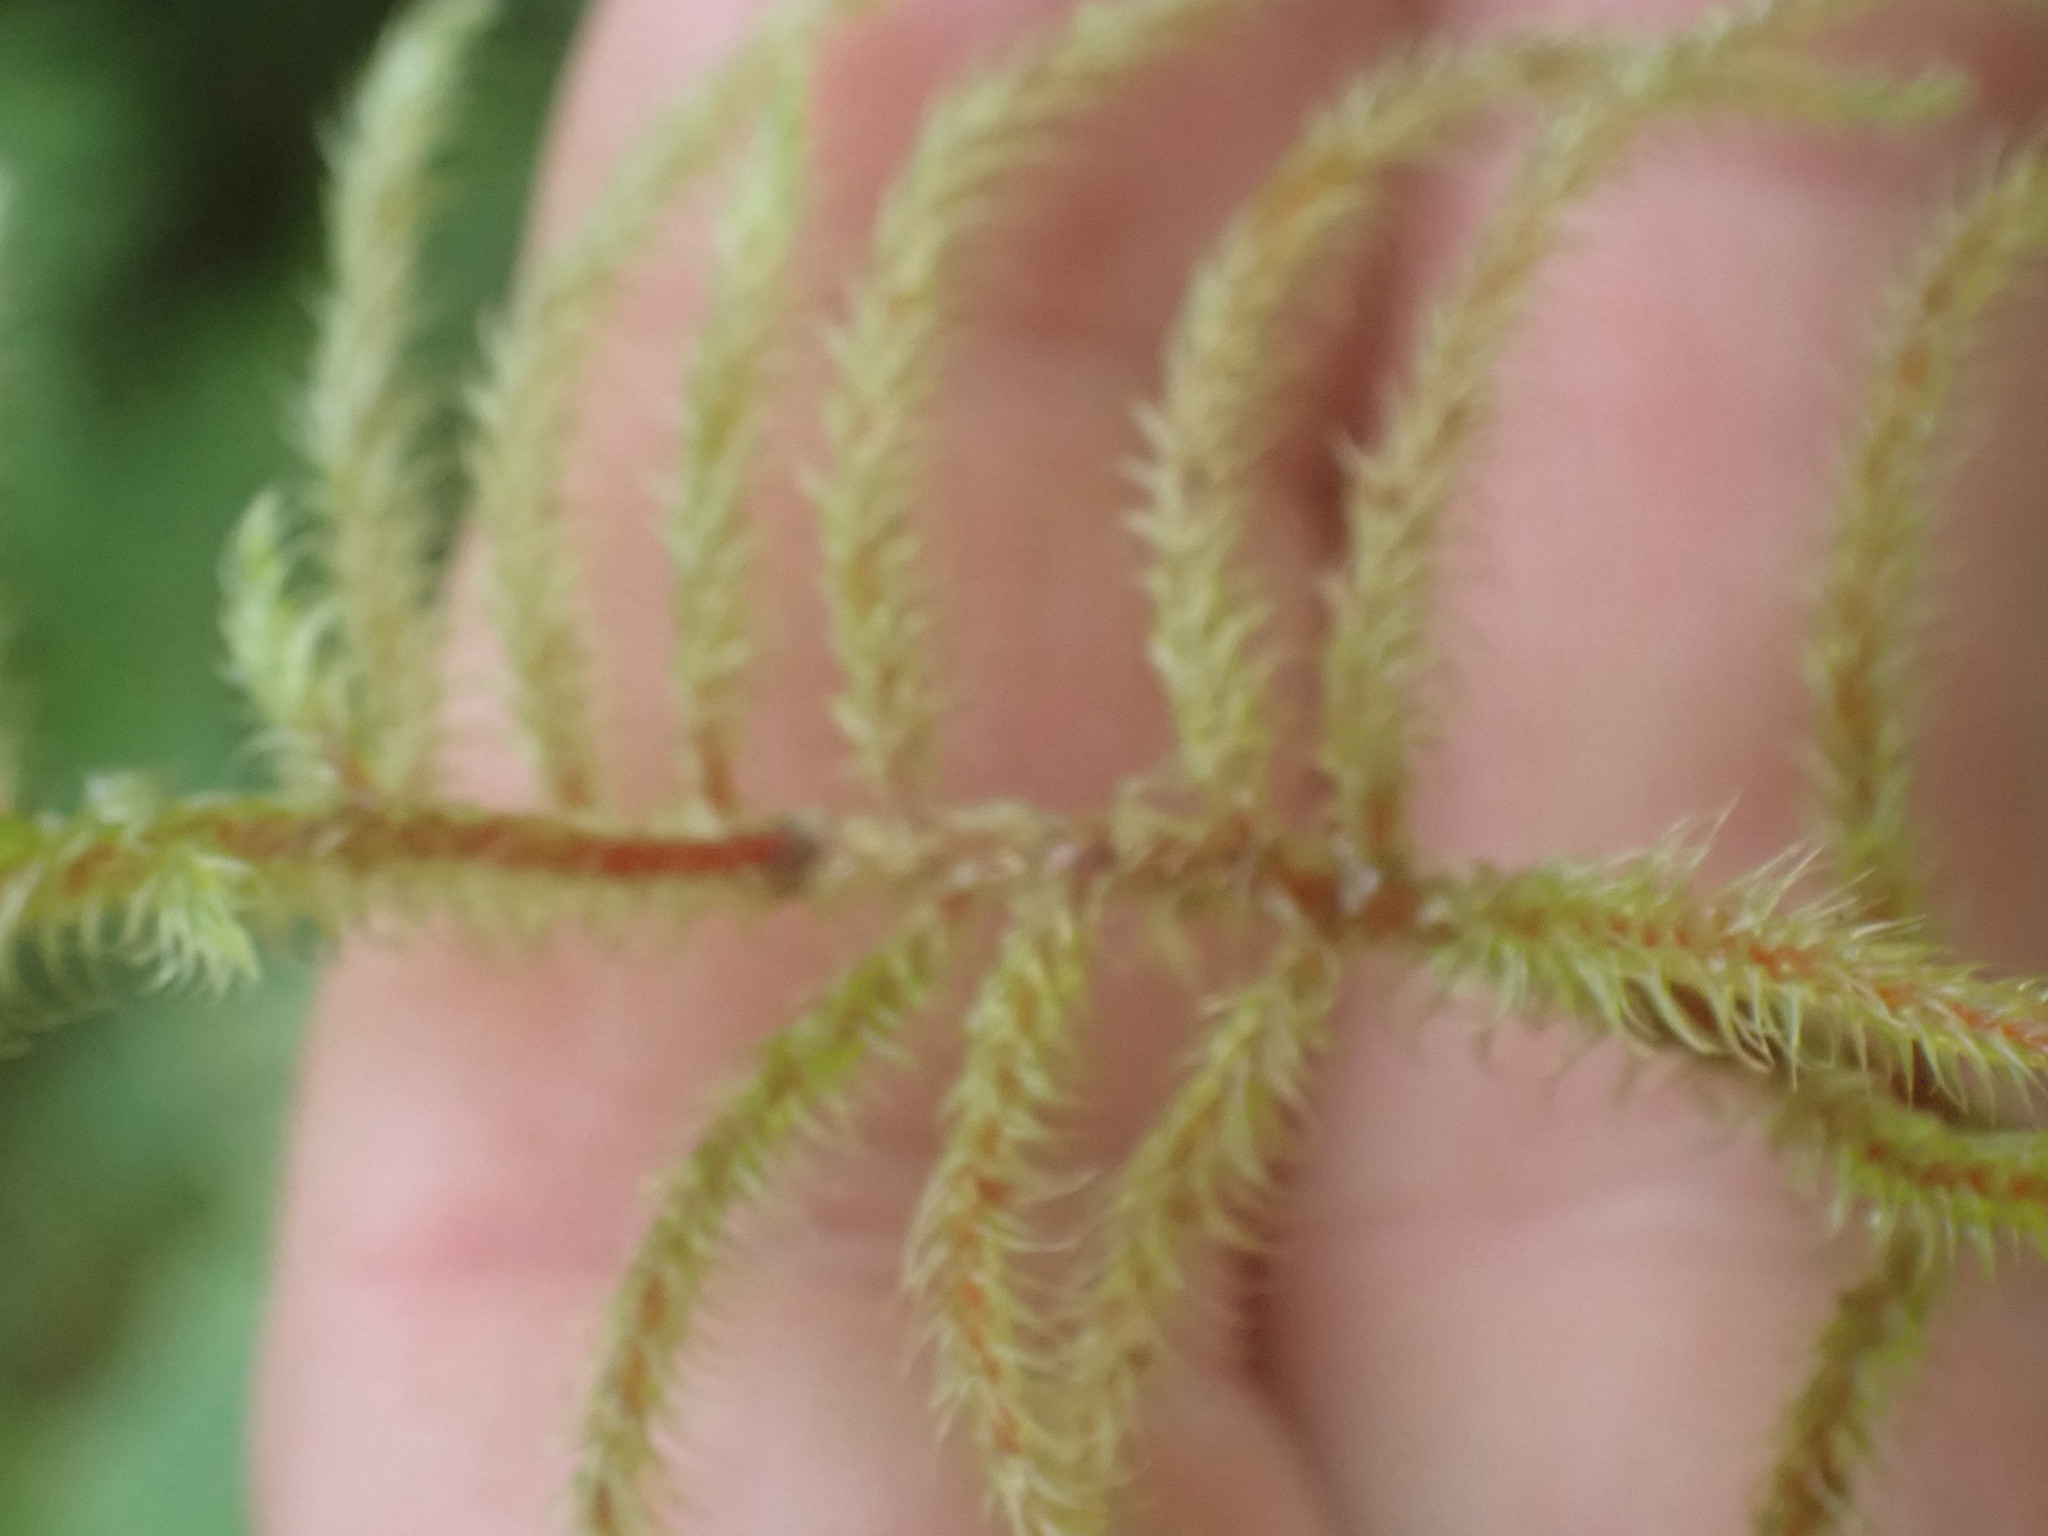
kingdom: Plantae
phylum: Bryophyta
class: Bryopsida
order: Hypnales
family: Hylocomiaceae
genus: Rhytidiadelphus
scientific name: Rhytidiadelphus loreus
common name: Lanky moss
